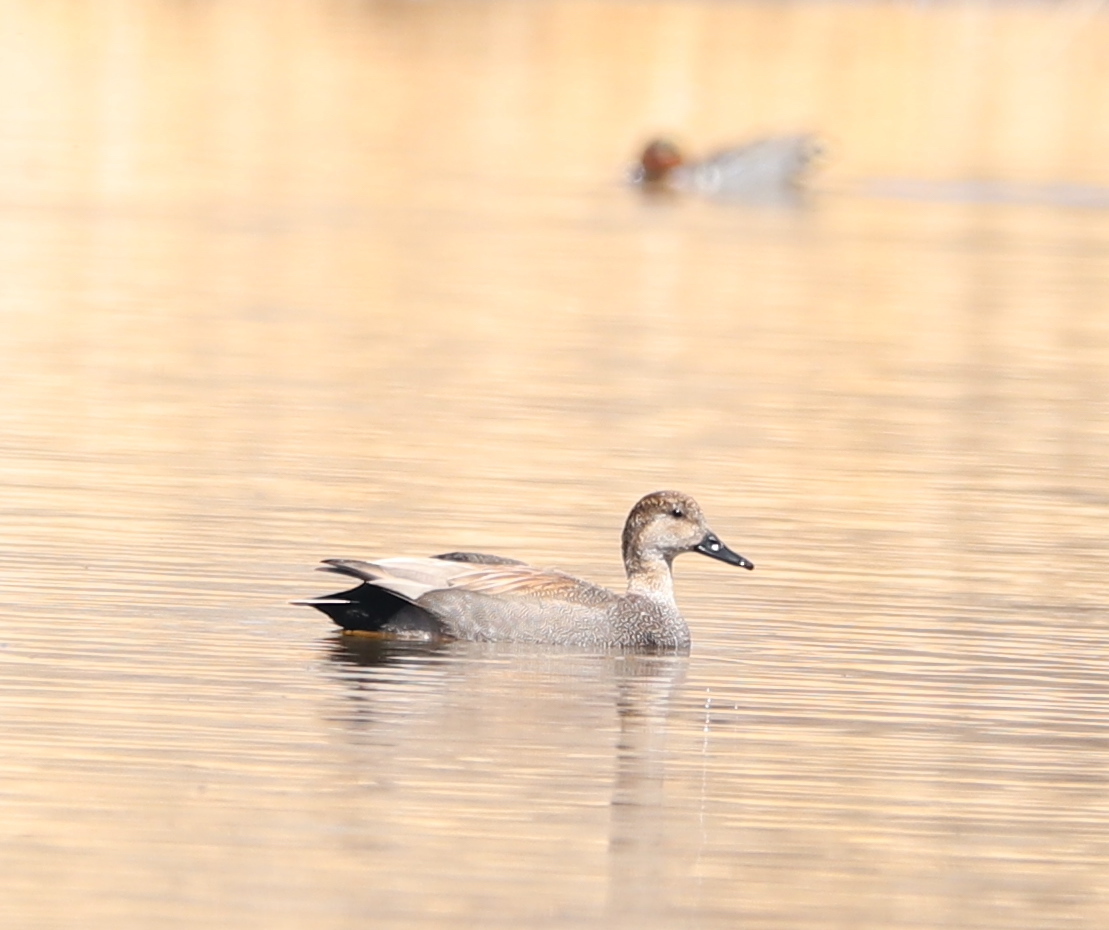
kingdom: Animalia
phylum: Chordata
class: Aves
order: Anseriformes
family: Anatidae
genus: Mareca
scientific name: Mareca strepera
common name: Gadwall
